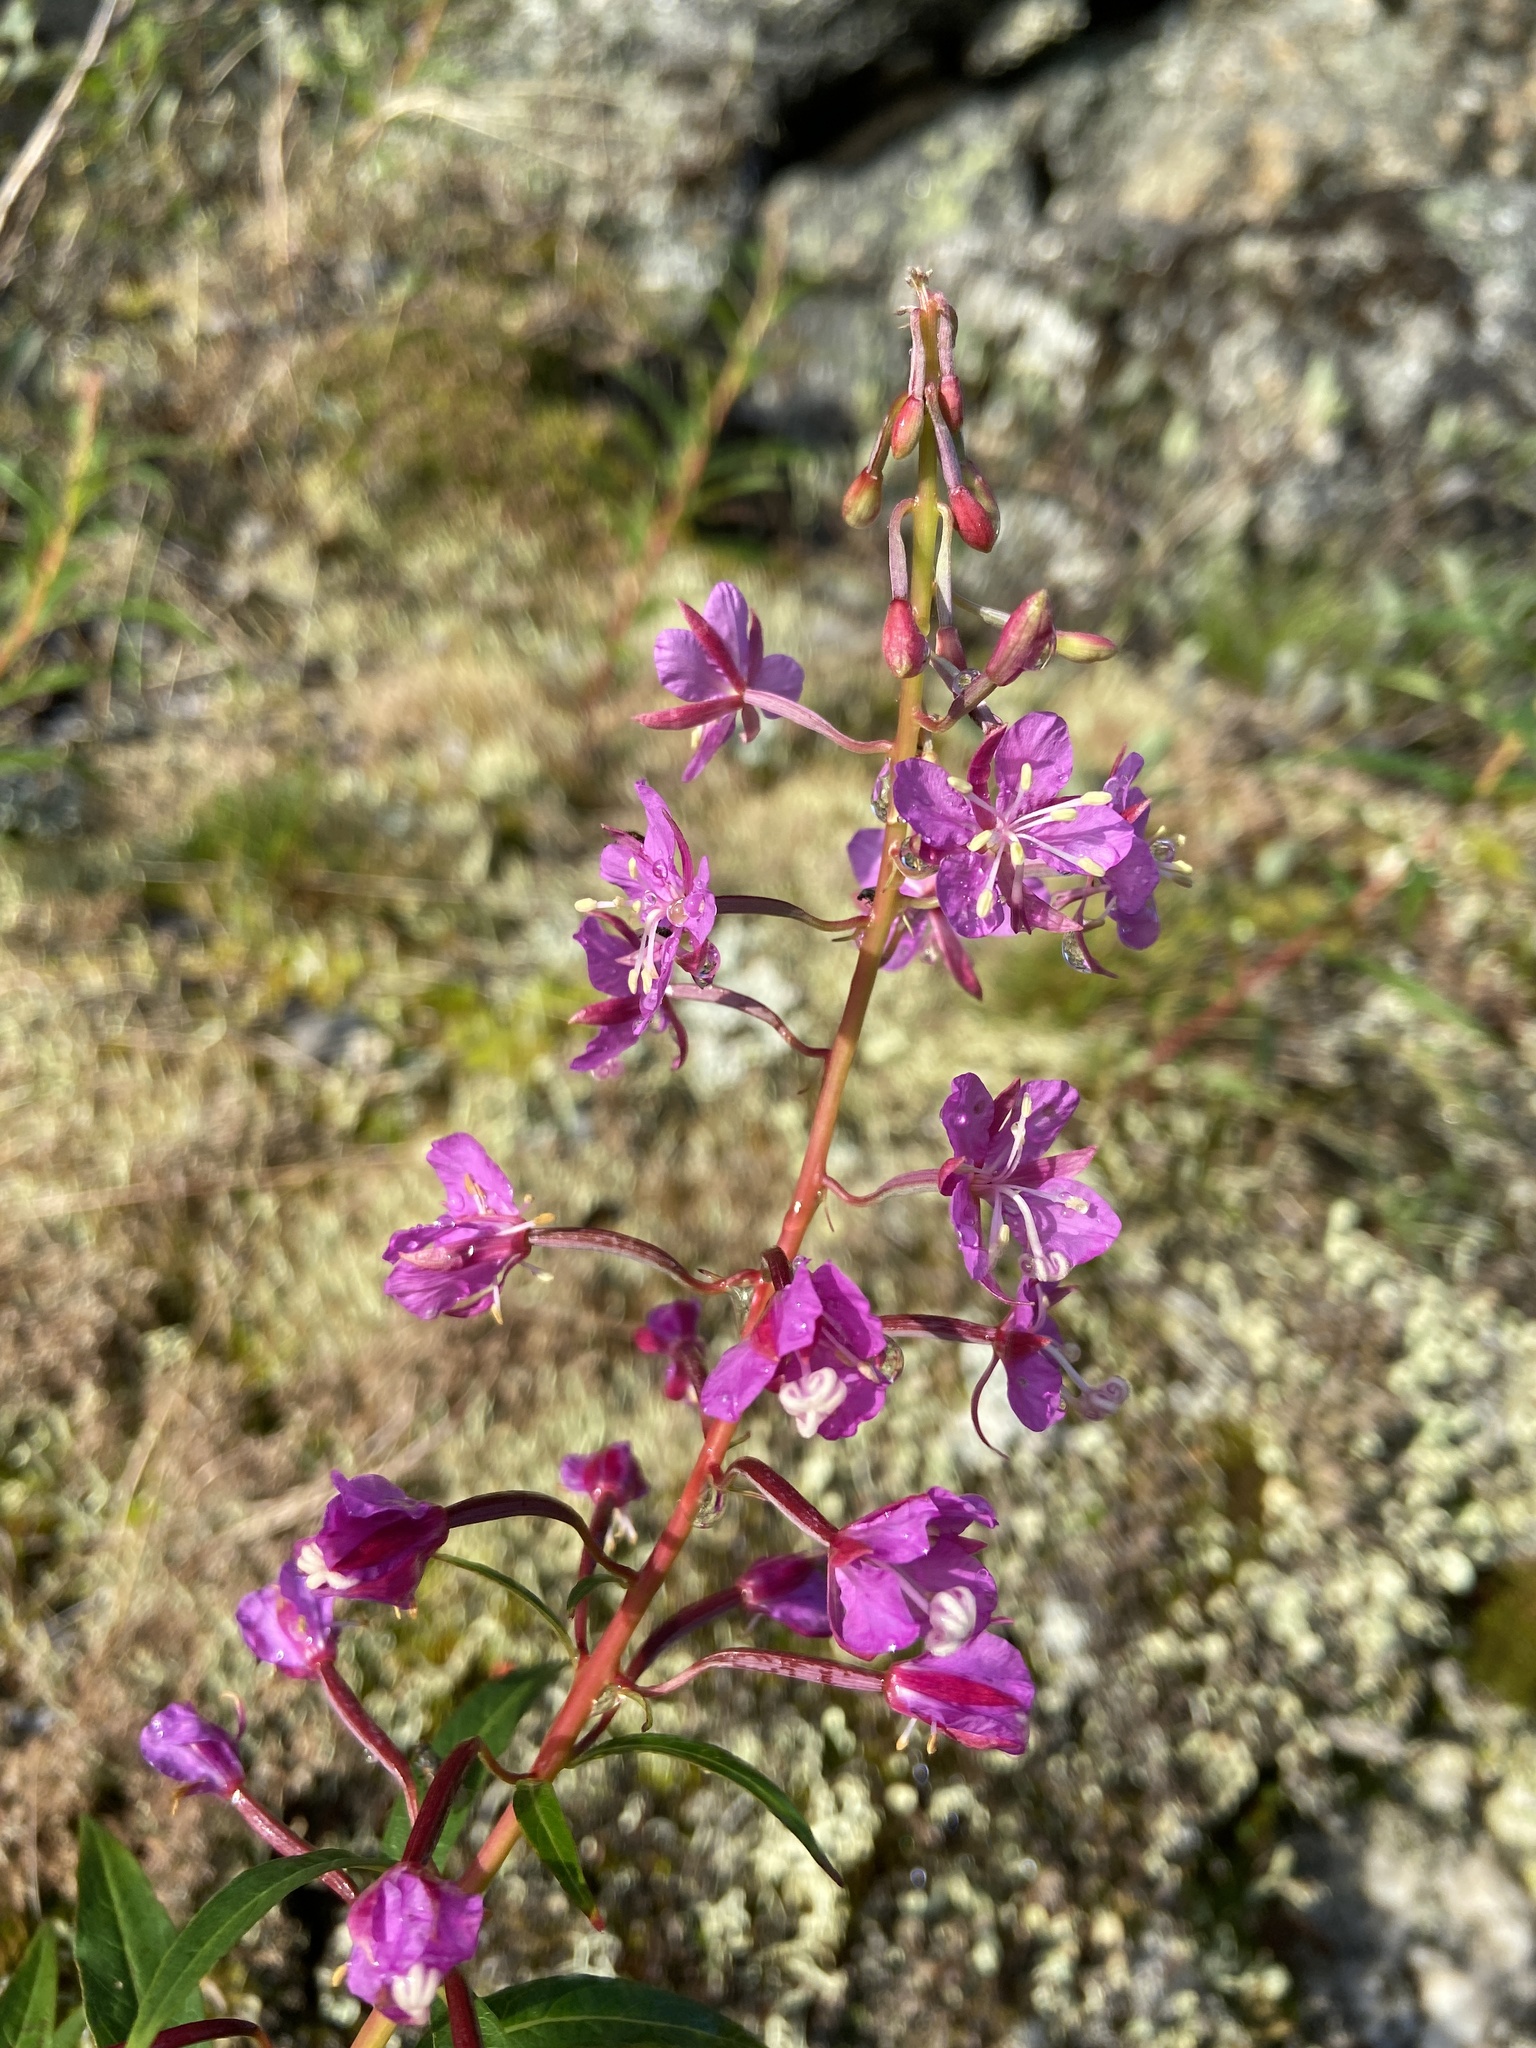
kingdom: Plantae
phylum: Tracheophyta
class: Magnoliopsida
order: Myrtales
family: Onagraceae
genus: Chamaenerion
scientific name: Chamaenerion angustifolium
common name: Fireweed
